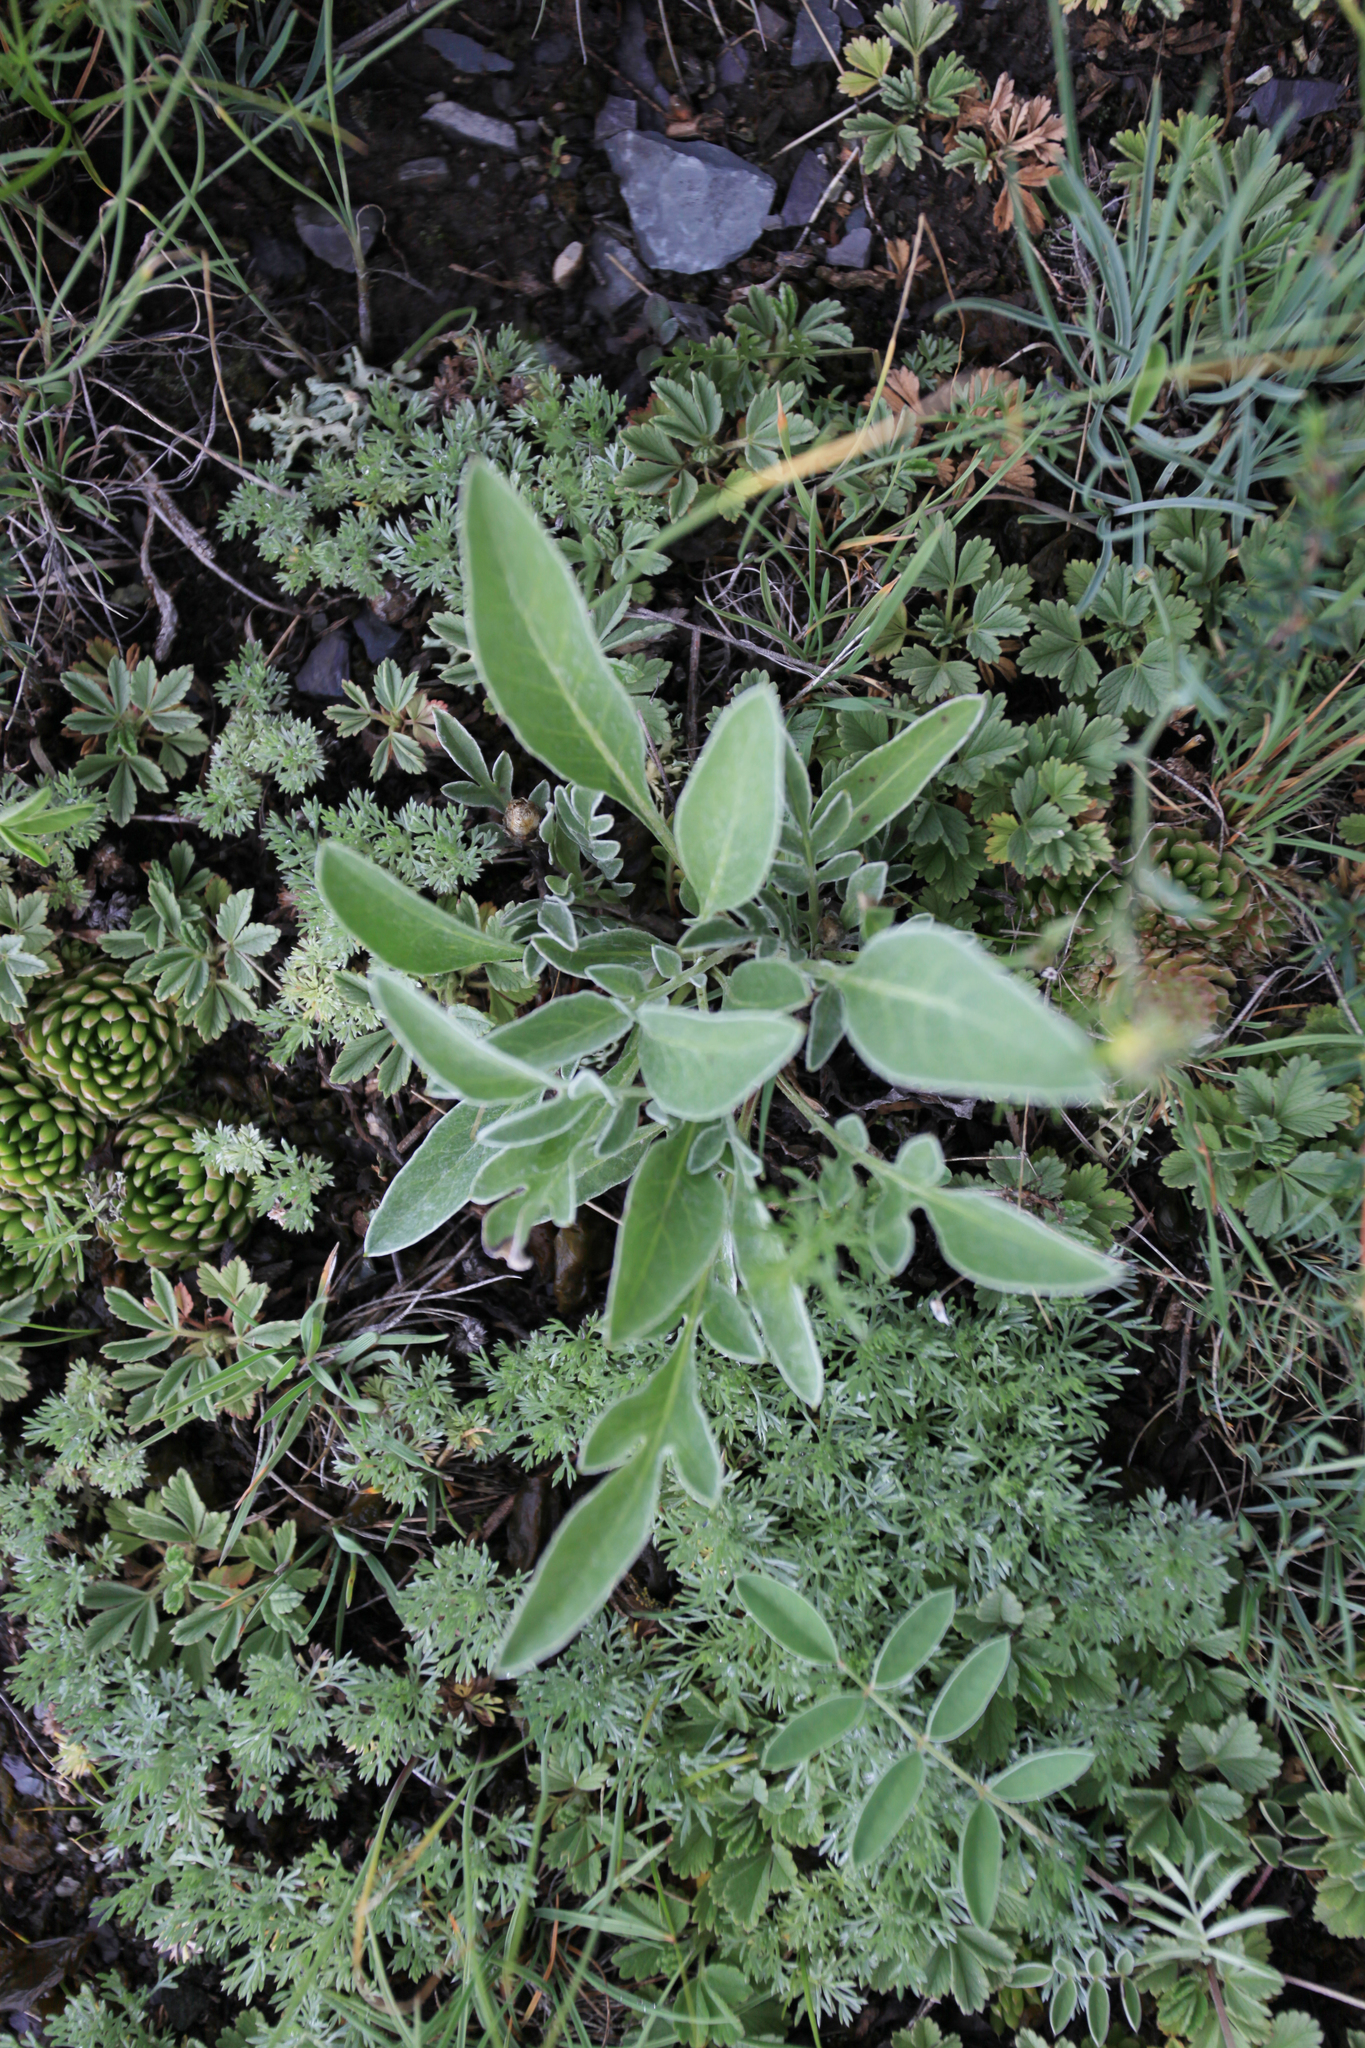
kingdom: Plantae
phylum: Tracheophyta
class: Magnoliopsida
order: Asterales
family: Asteraceae
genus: Psephellus
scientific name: Psephellus sibiricus
